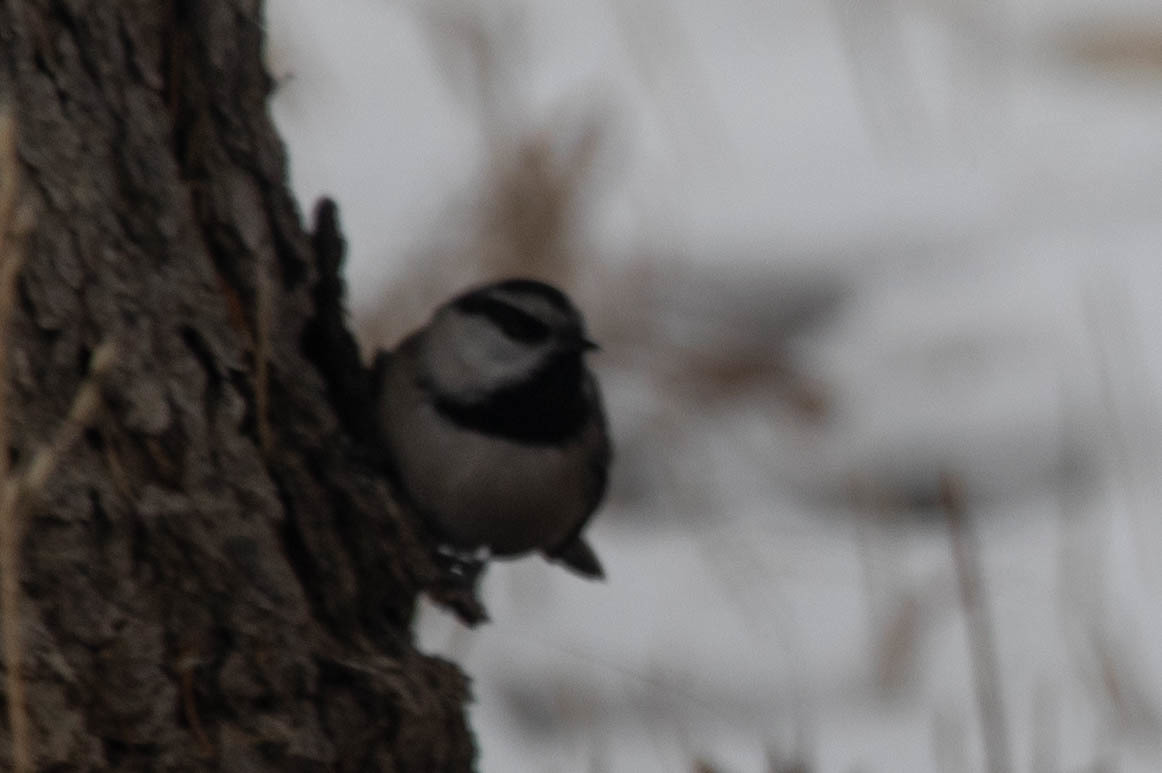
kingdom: Animalia
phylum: Chordata
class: Aves
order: Passeriformes
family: Paridae
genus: Poecile
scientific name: Poecile gambeli
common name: Mountain chickadee
